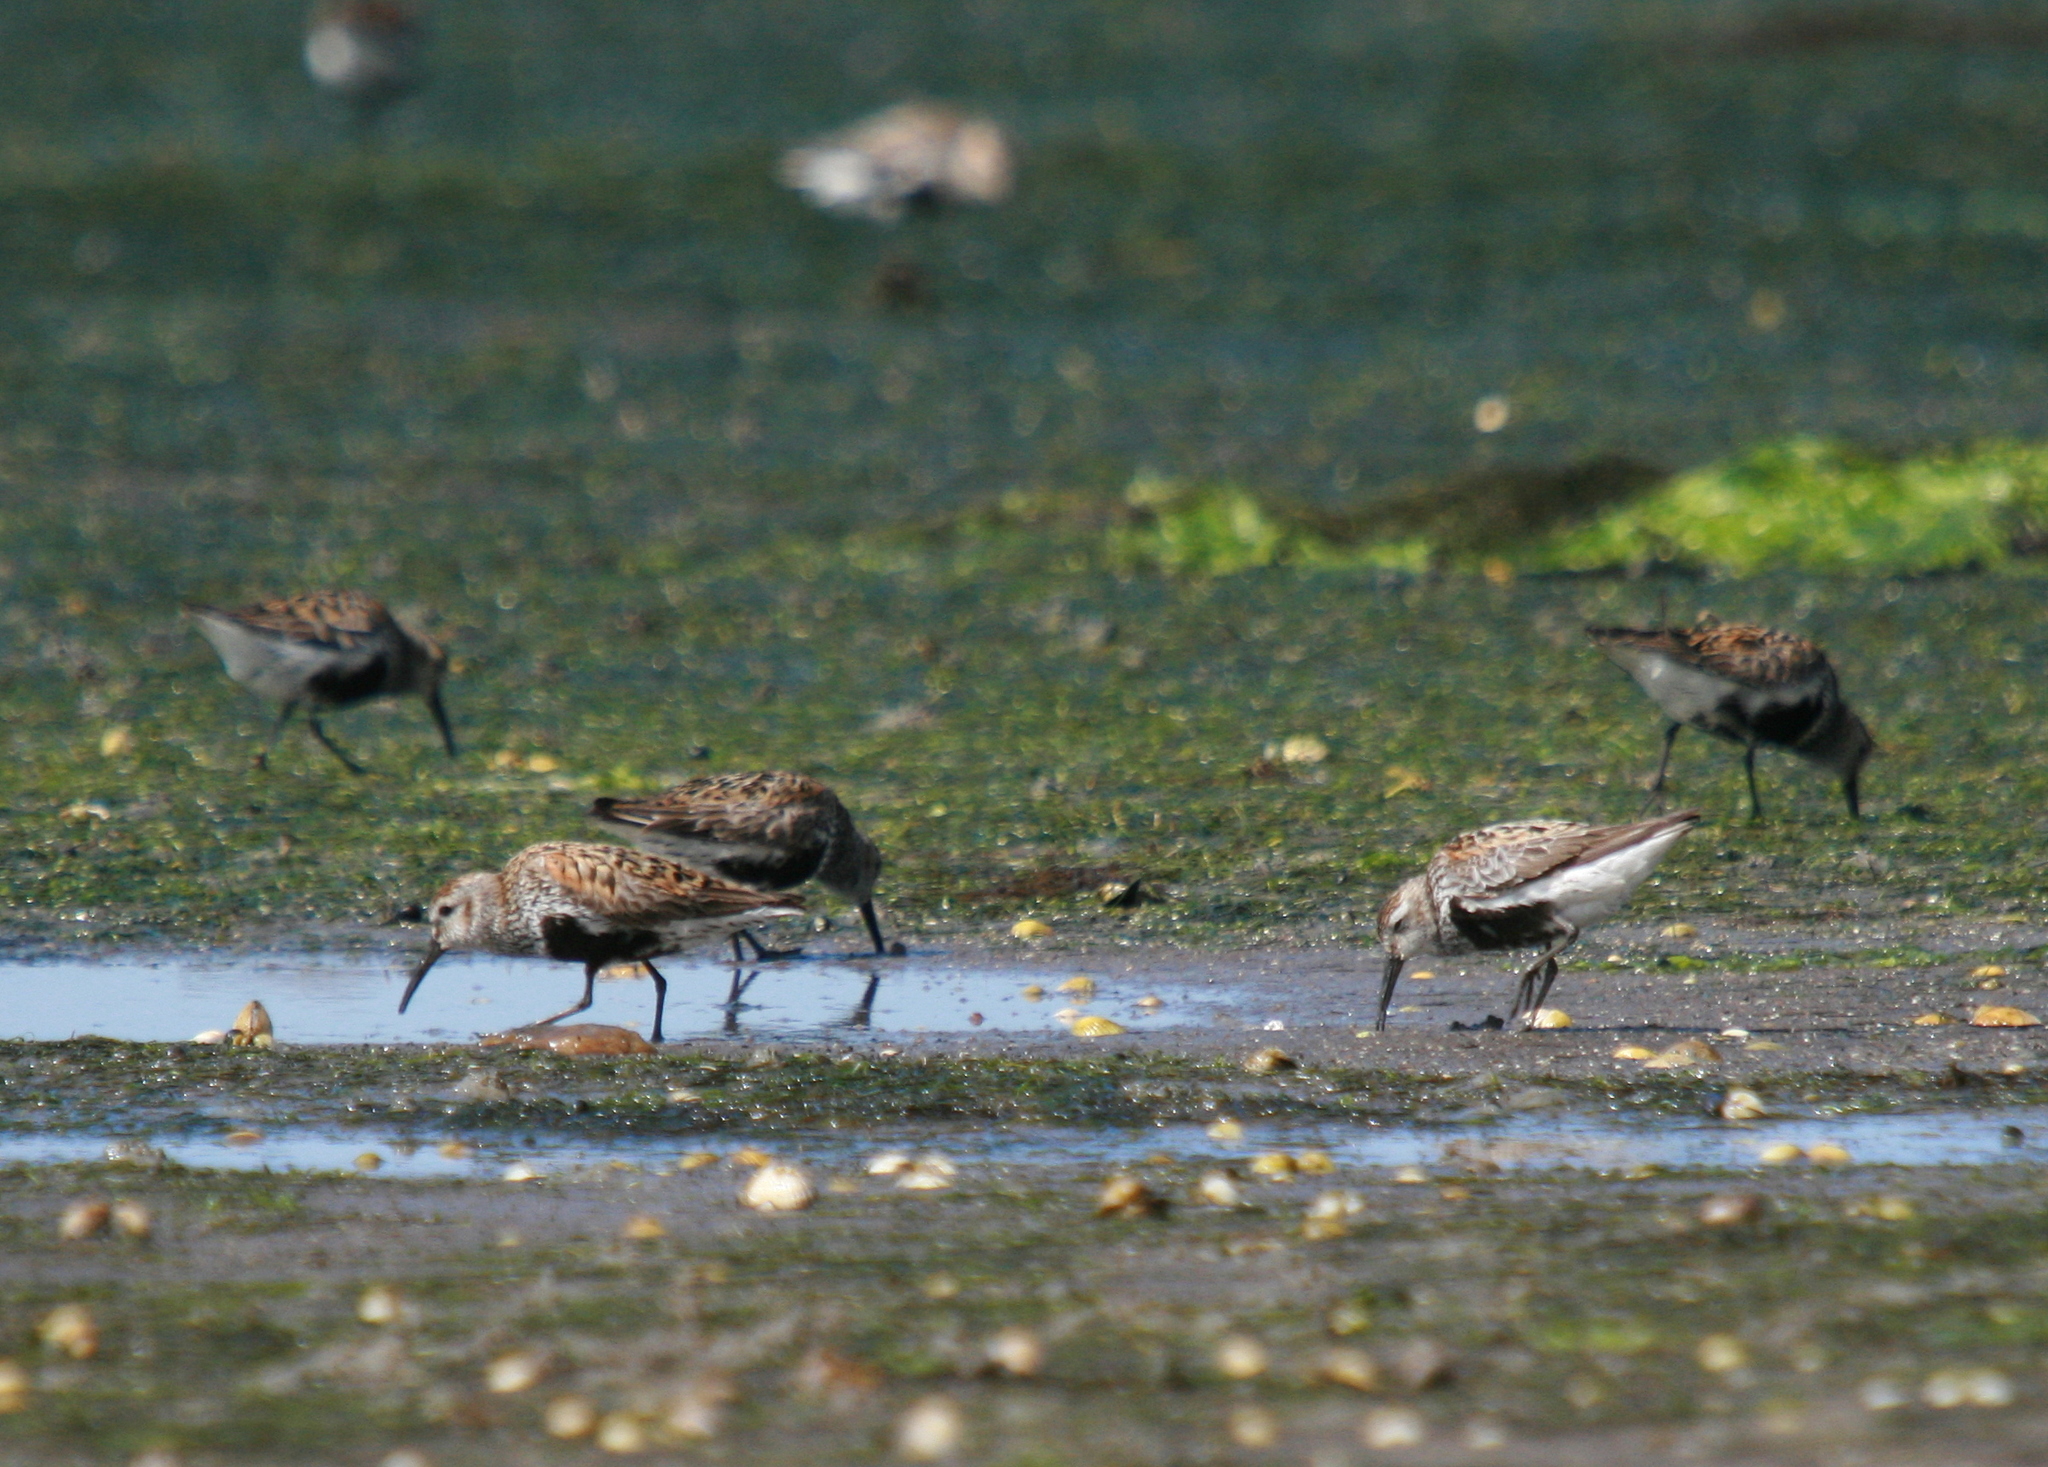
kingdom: Animalia
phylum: Chordata
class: Aves
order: Charadriiformes
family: Scolopacidae
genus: Calidris
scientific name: Calidris alpina
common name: Dunlin
